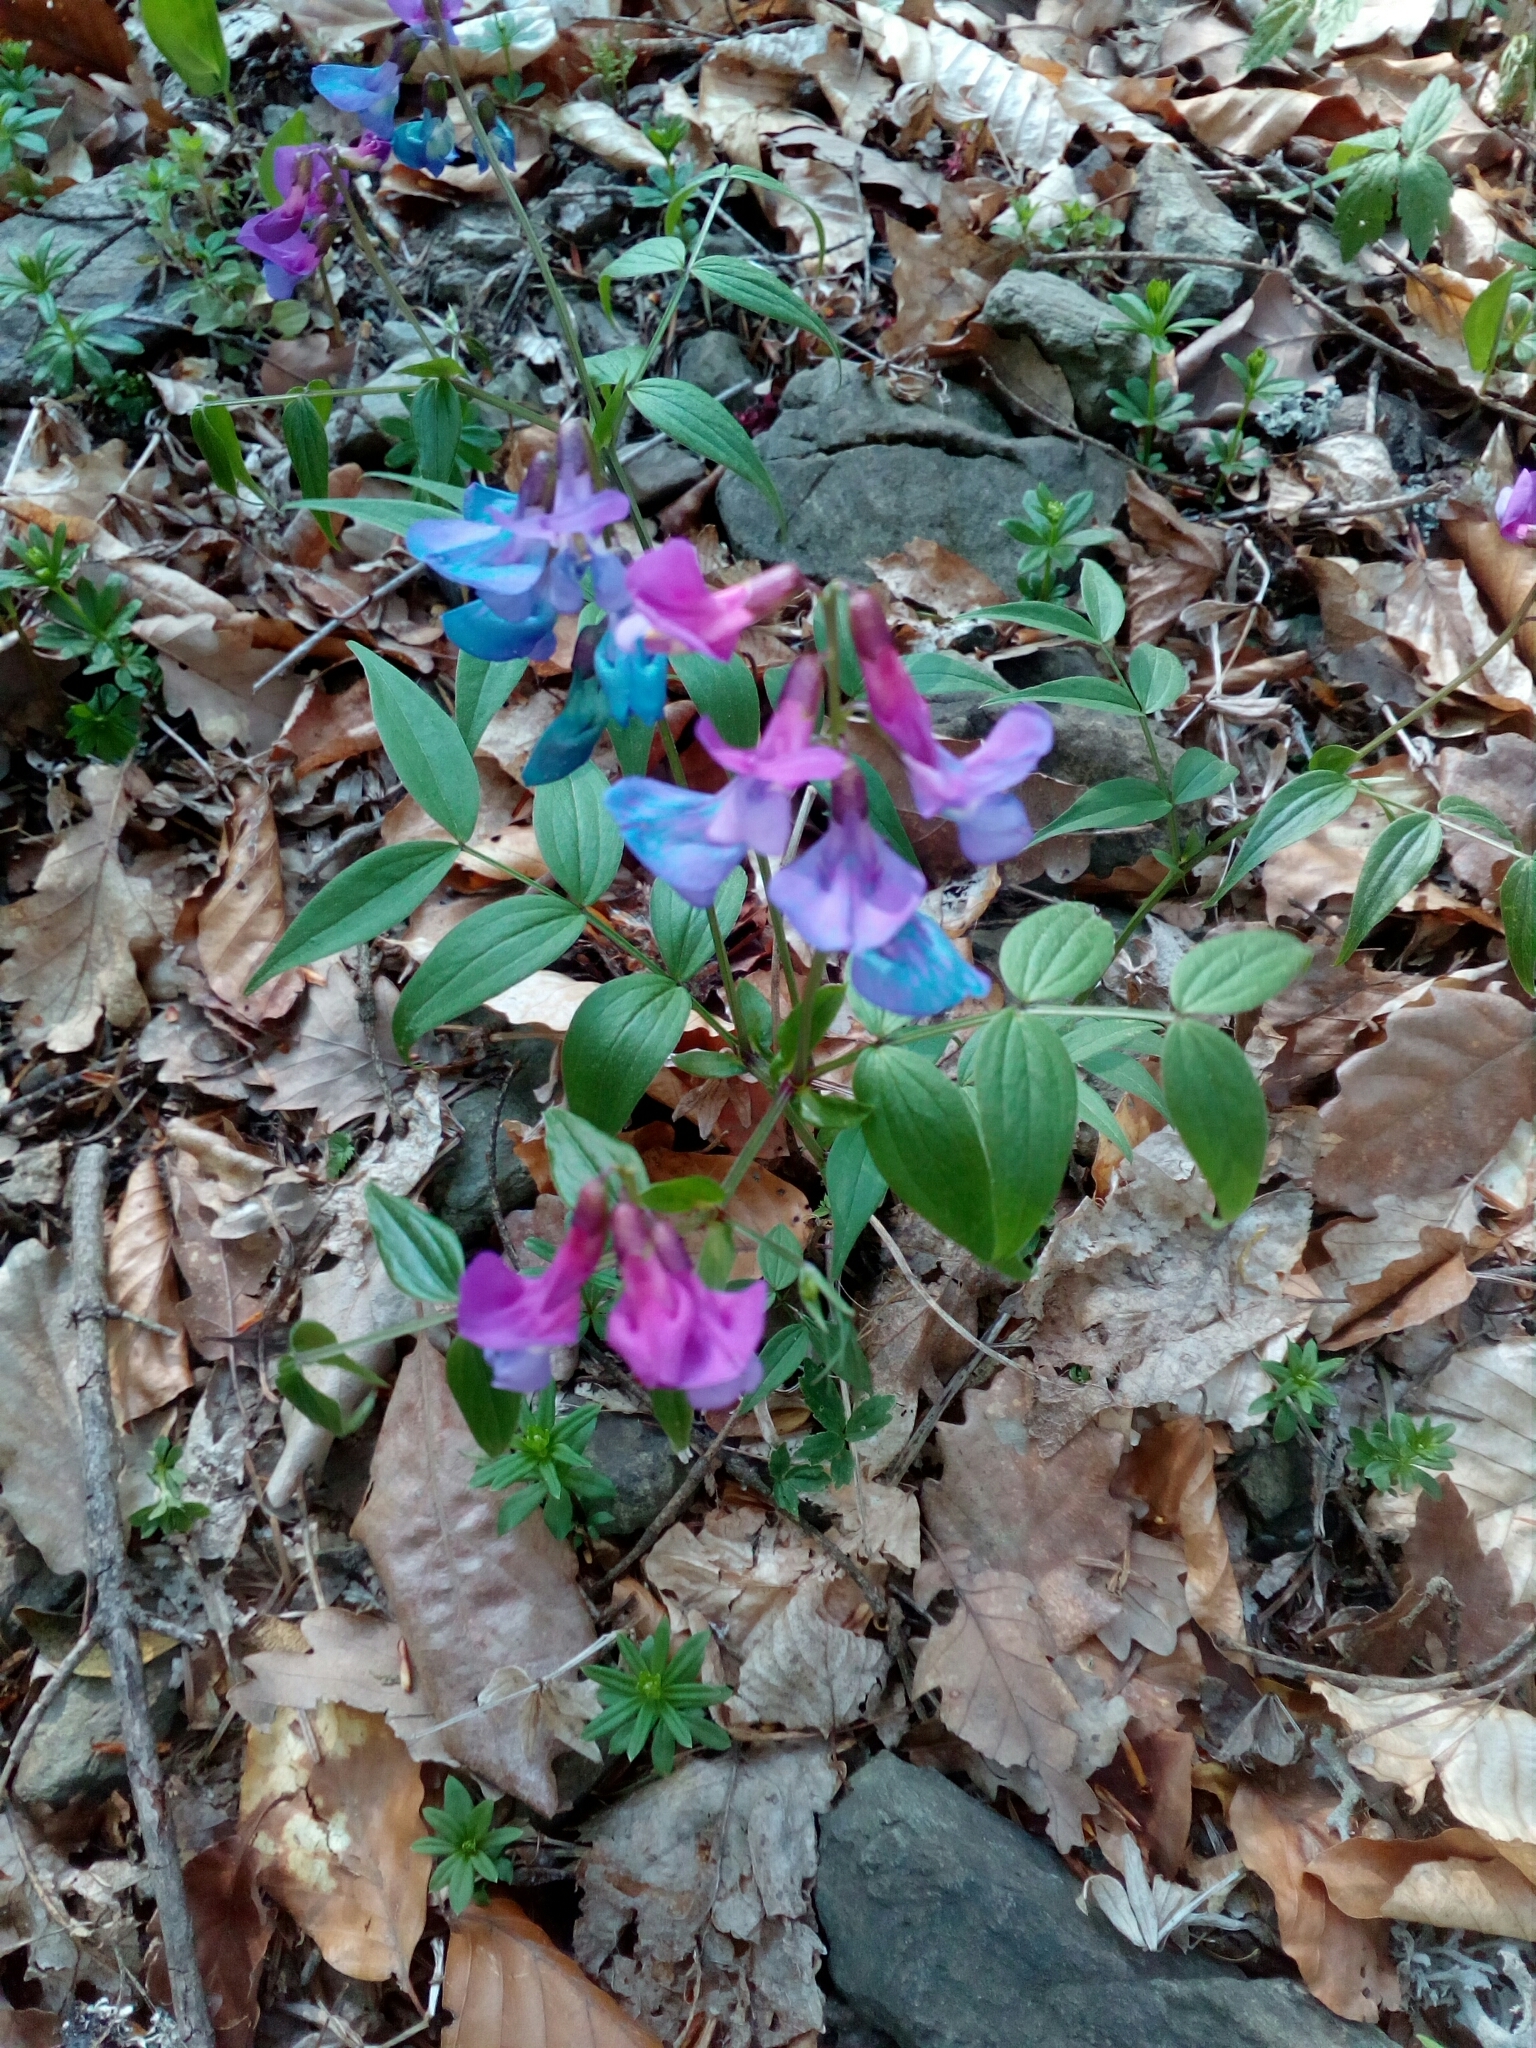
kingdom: Plantae
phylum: Tracheophyta
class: Magnoliopsida
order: Fabales
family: Fabaceae
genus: Lathyrus
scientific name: Lathyrus vernus
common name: Spring pea
